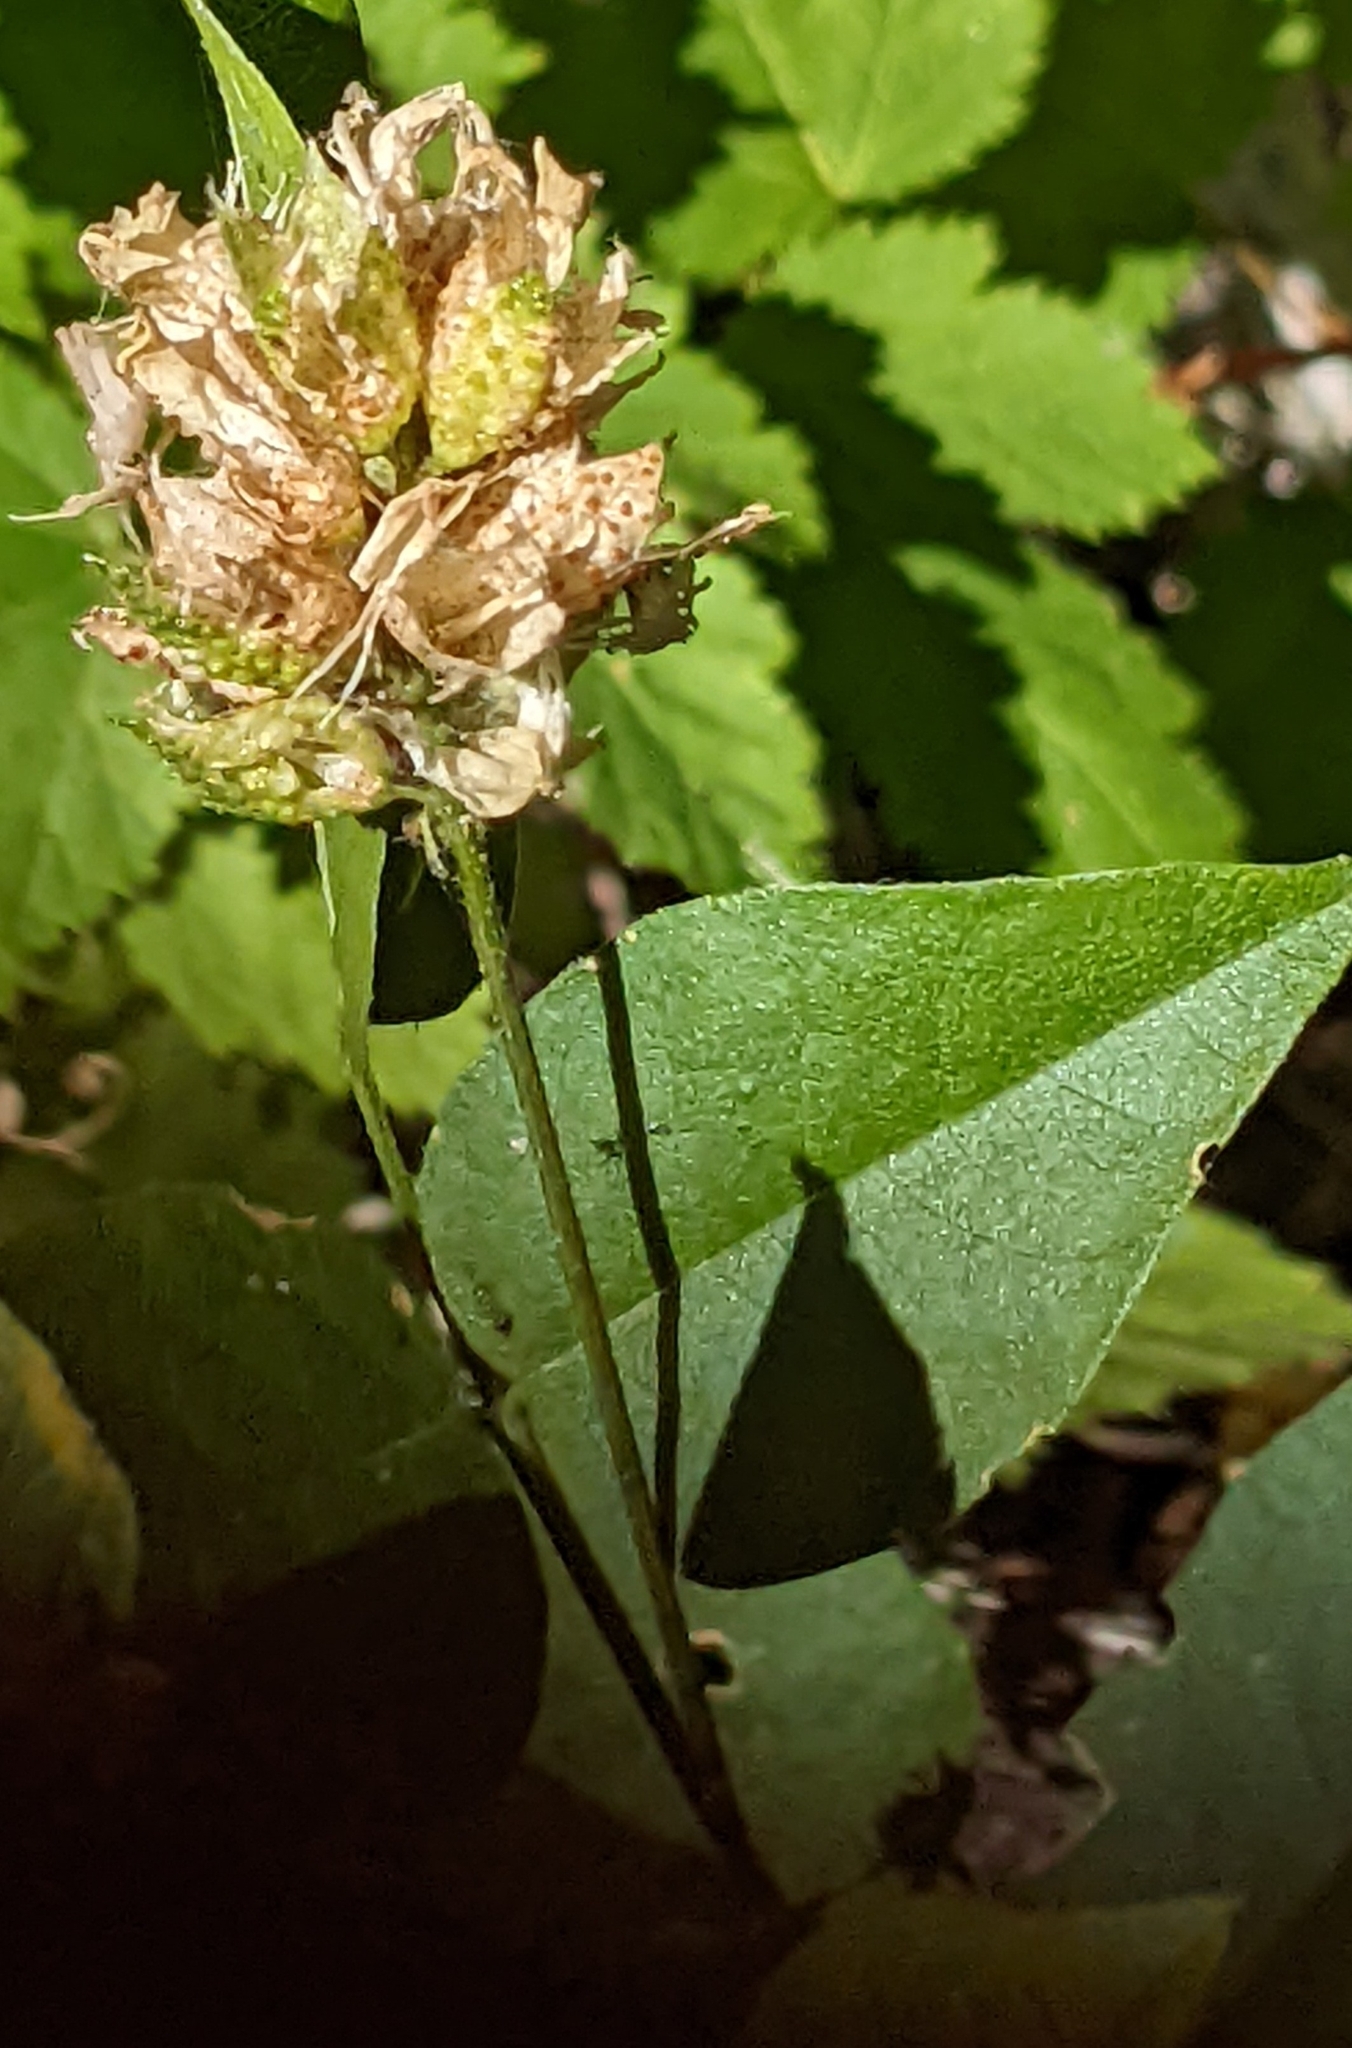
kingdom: Plantae
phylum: Tracheophyta
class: Magnoliopsida
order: Fabales
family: Fabaceae
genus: Rupertia
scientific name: Rupertia physodes
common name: California-tea
